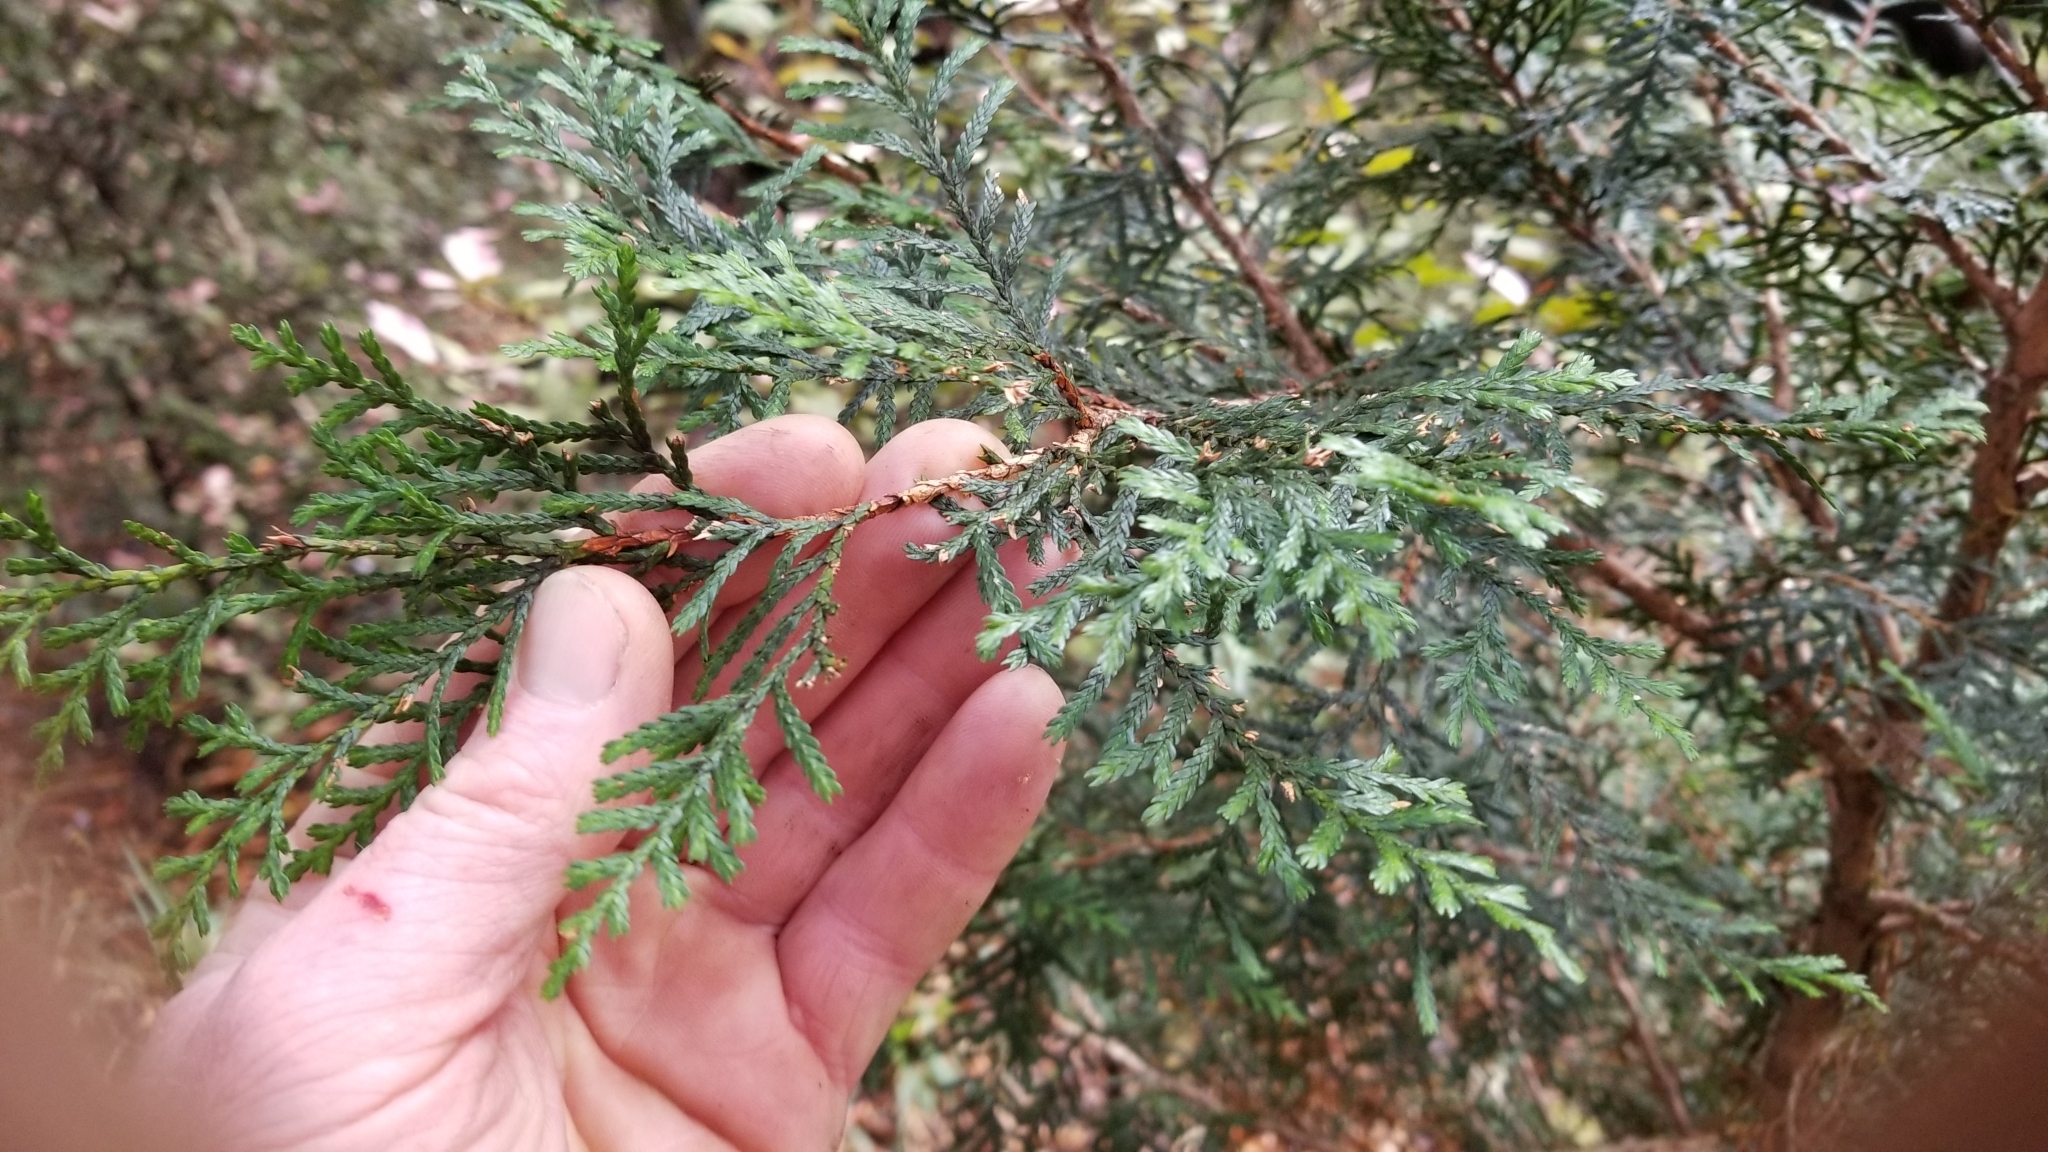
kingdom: Plantae
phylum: Tracheophyta
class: Pinopsida
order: Pinales
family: Cupressaceae
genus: Libocedrus
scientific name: Libocedrus bidwillii
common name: Cedar
